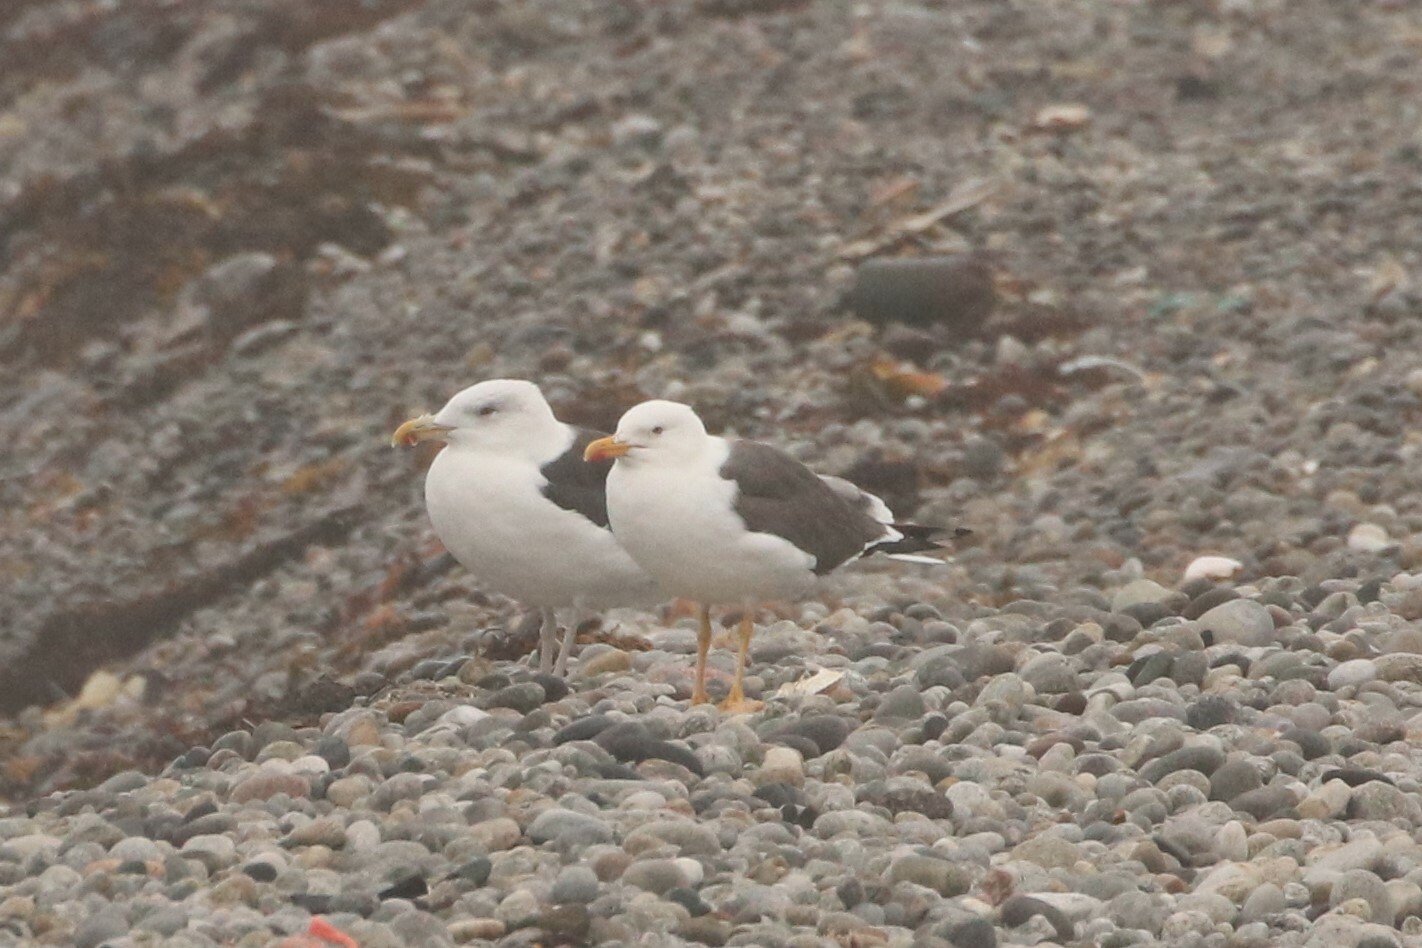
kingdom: Animalia
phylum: Chordata
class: Aves
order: Charadriiformes
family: Laridae
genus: Larus
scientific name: Larus fuscus
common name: Lesser black-backed gull
